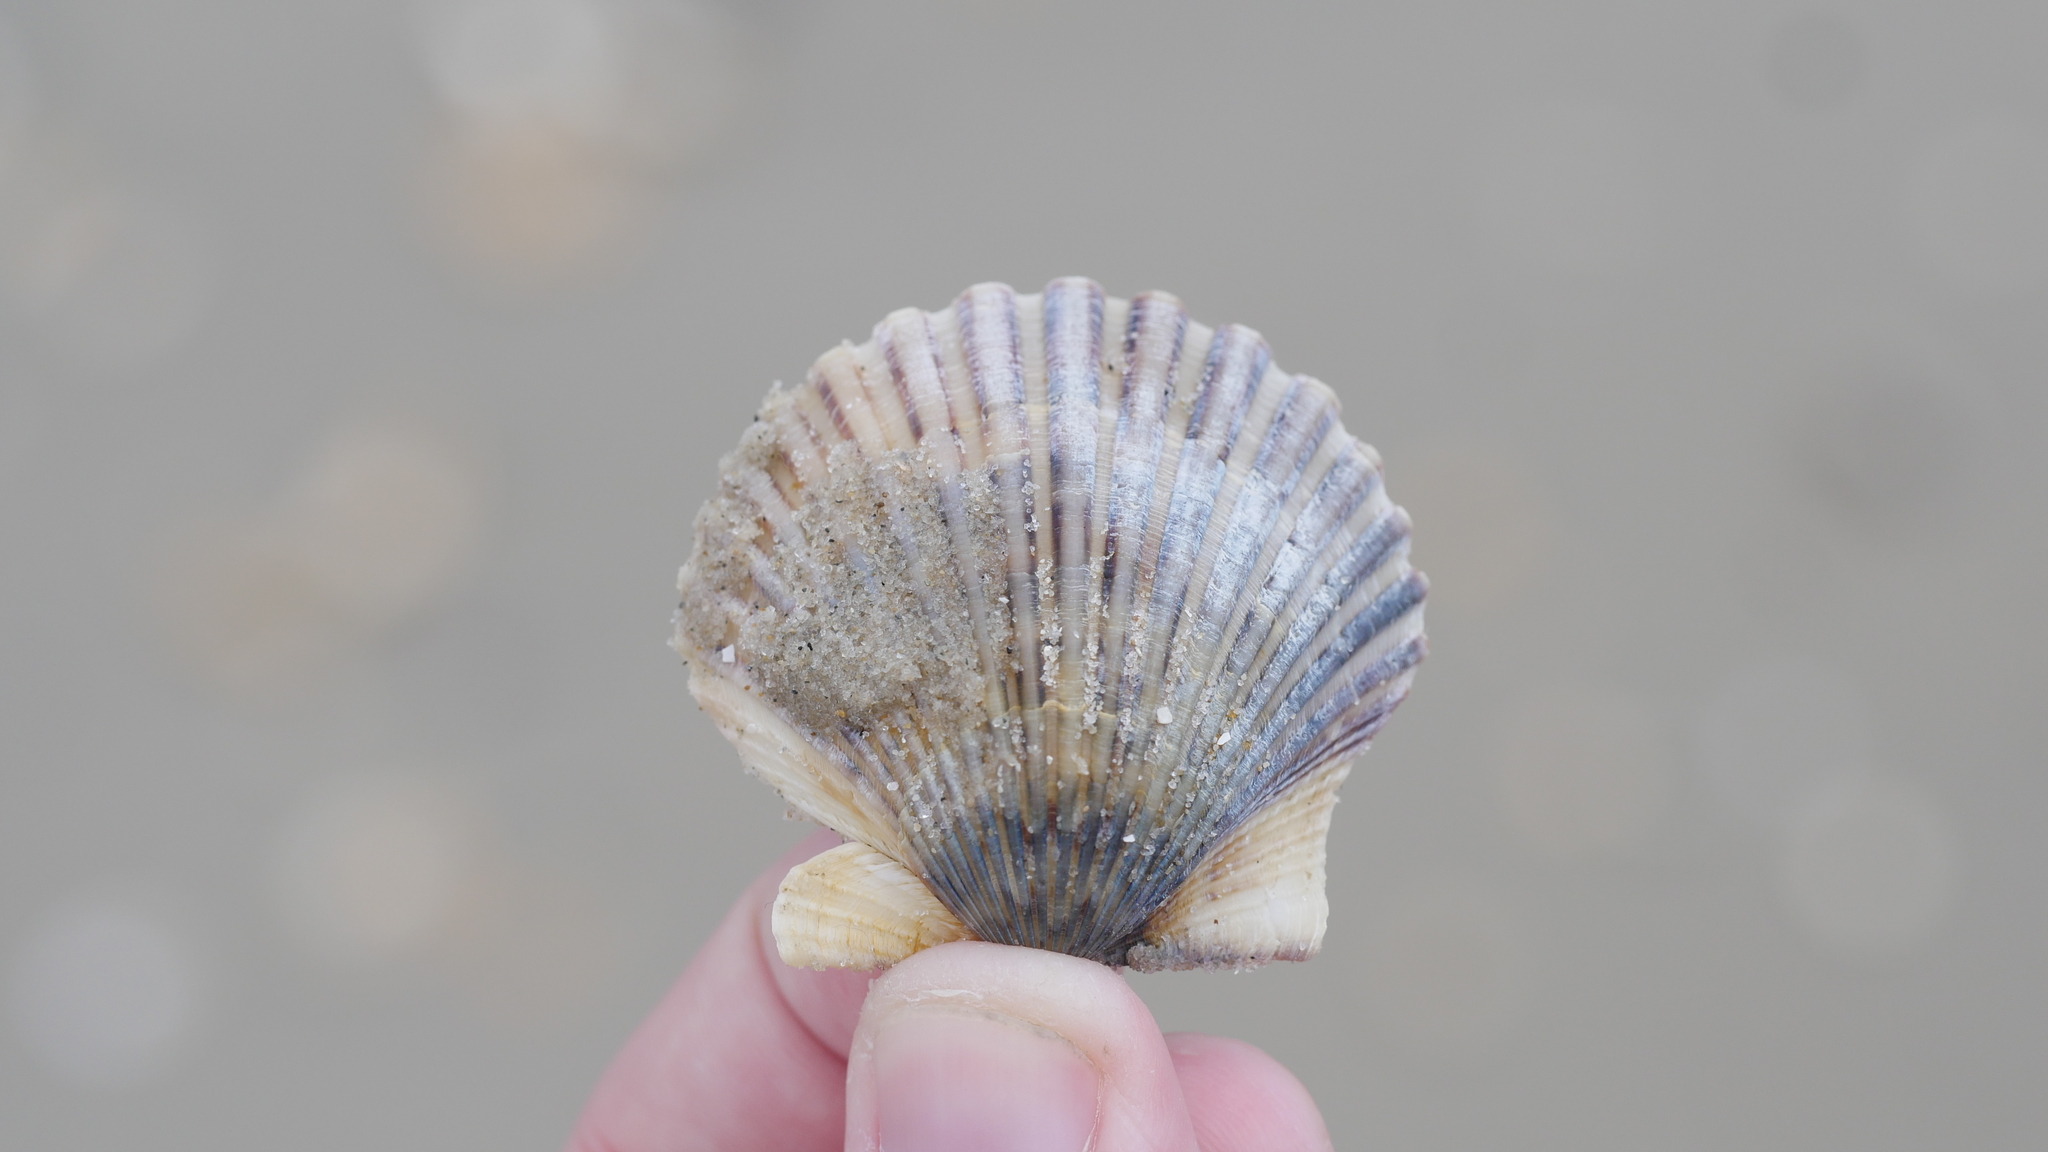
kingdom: Animalia
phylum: Mollusca
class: Bivalvia
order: Pectinida
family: Pectinidae
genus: Argopecten
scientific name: Argopecten irradians
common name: Atlantic bay scallop
